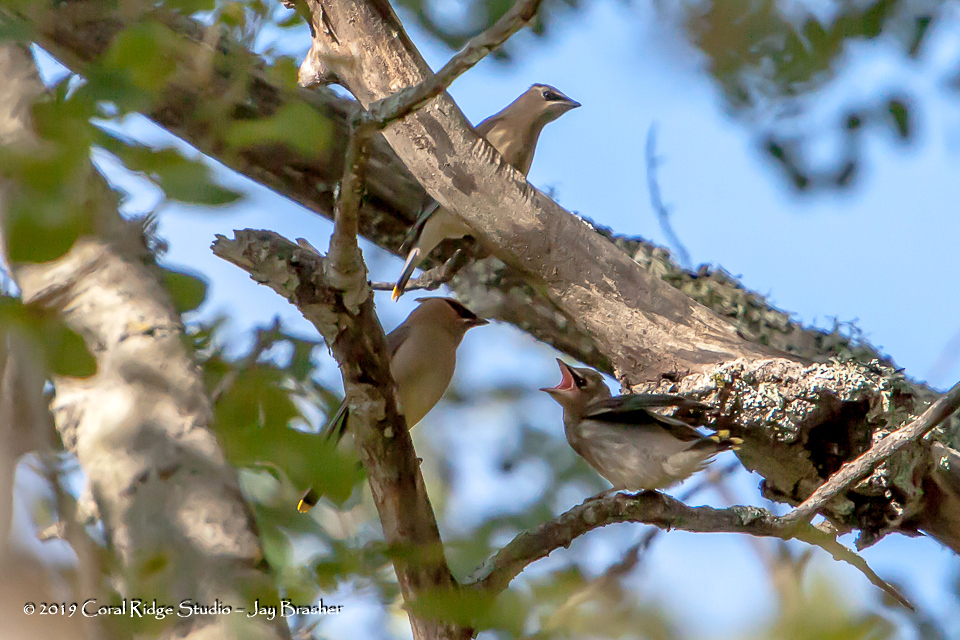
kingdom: Animalia
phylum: Chordata
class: Aves
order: Passeriformes
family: Bombycillidae
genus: Bombycilla
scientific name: Bombycilla cedrorum
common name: Cedar waxwing
